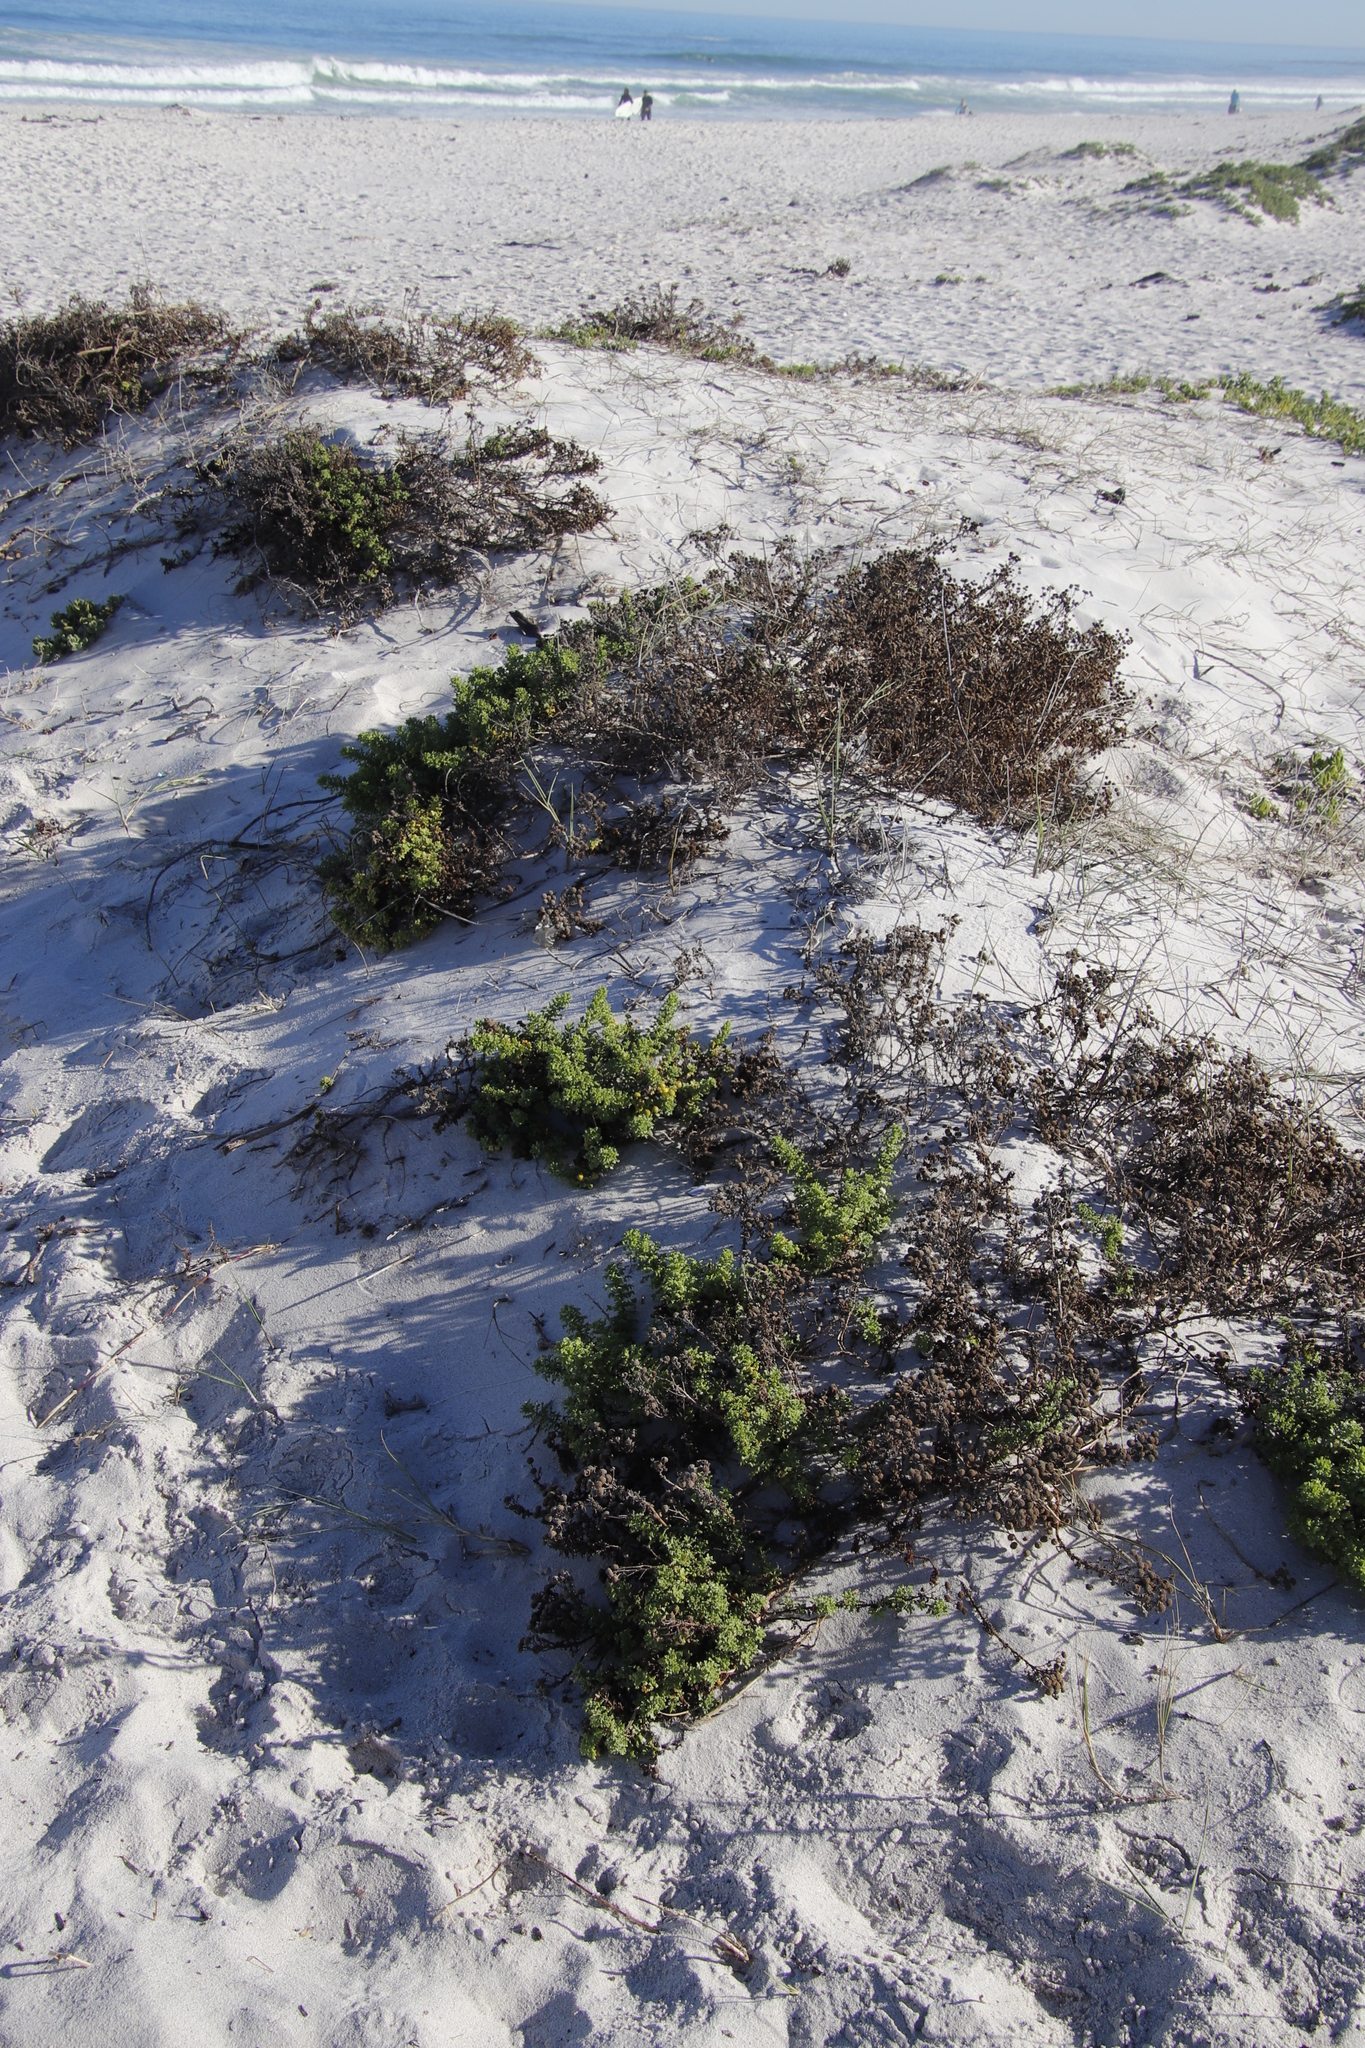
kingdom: Plantae
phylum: Tracheophyta
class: Magnoliopsida
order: Asterales
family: Asteraceae
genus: Oncosiphon
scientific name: Oncosiphon sabulosus
